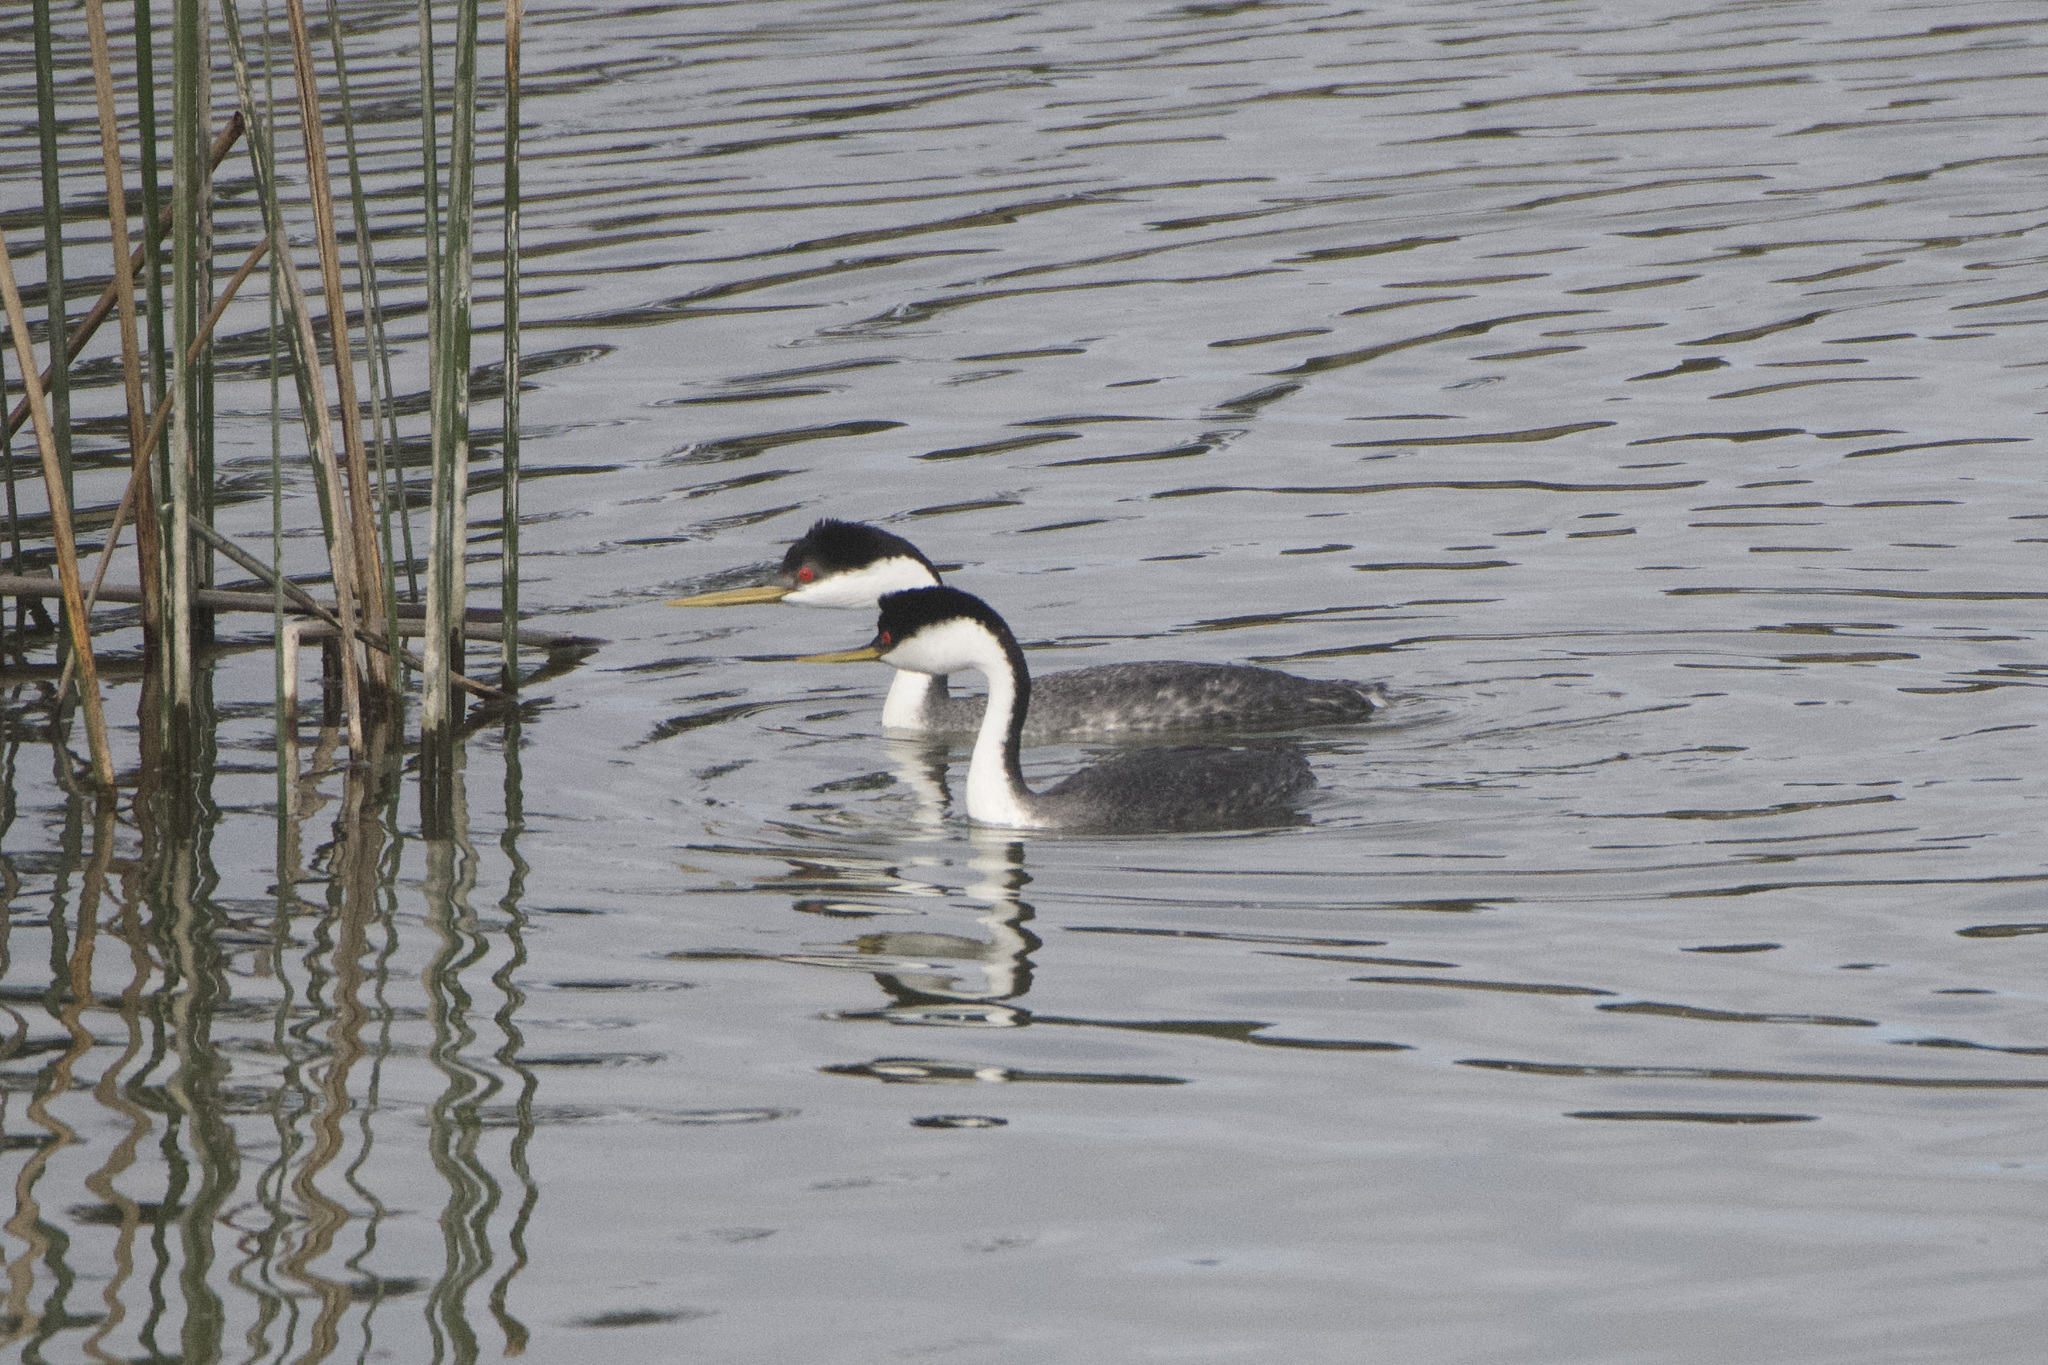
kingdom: Animalia
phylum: Chordata
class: Aves
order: Podicipediformes
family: Podicipedidae
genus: Aechmophorus
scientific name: Aechmophorus occidentalis
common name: Western grebe
